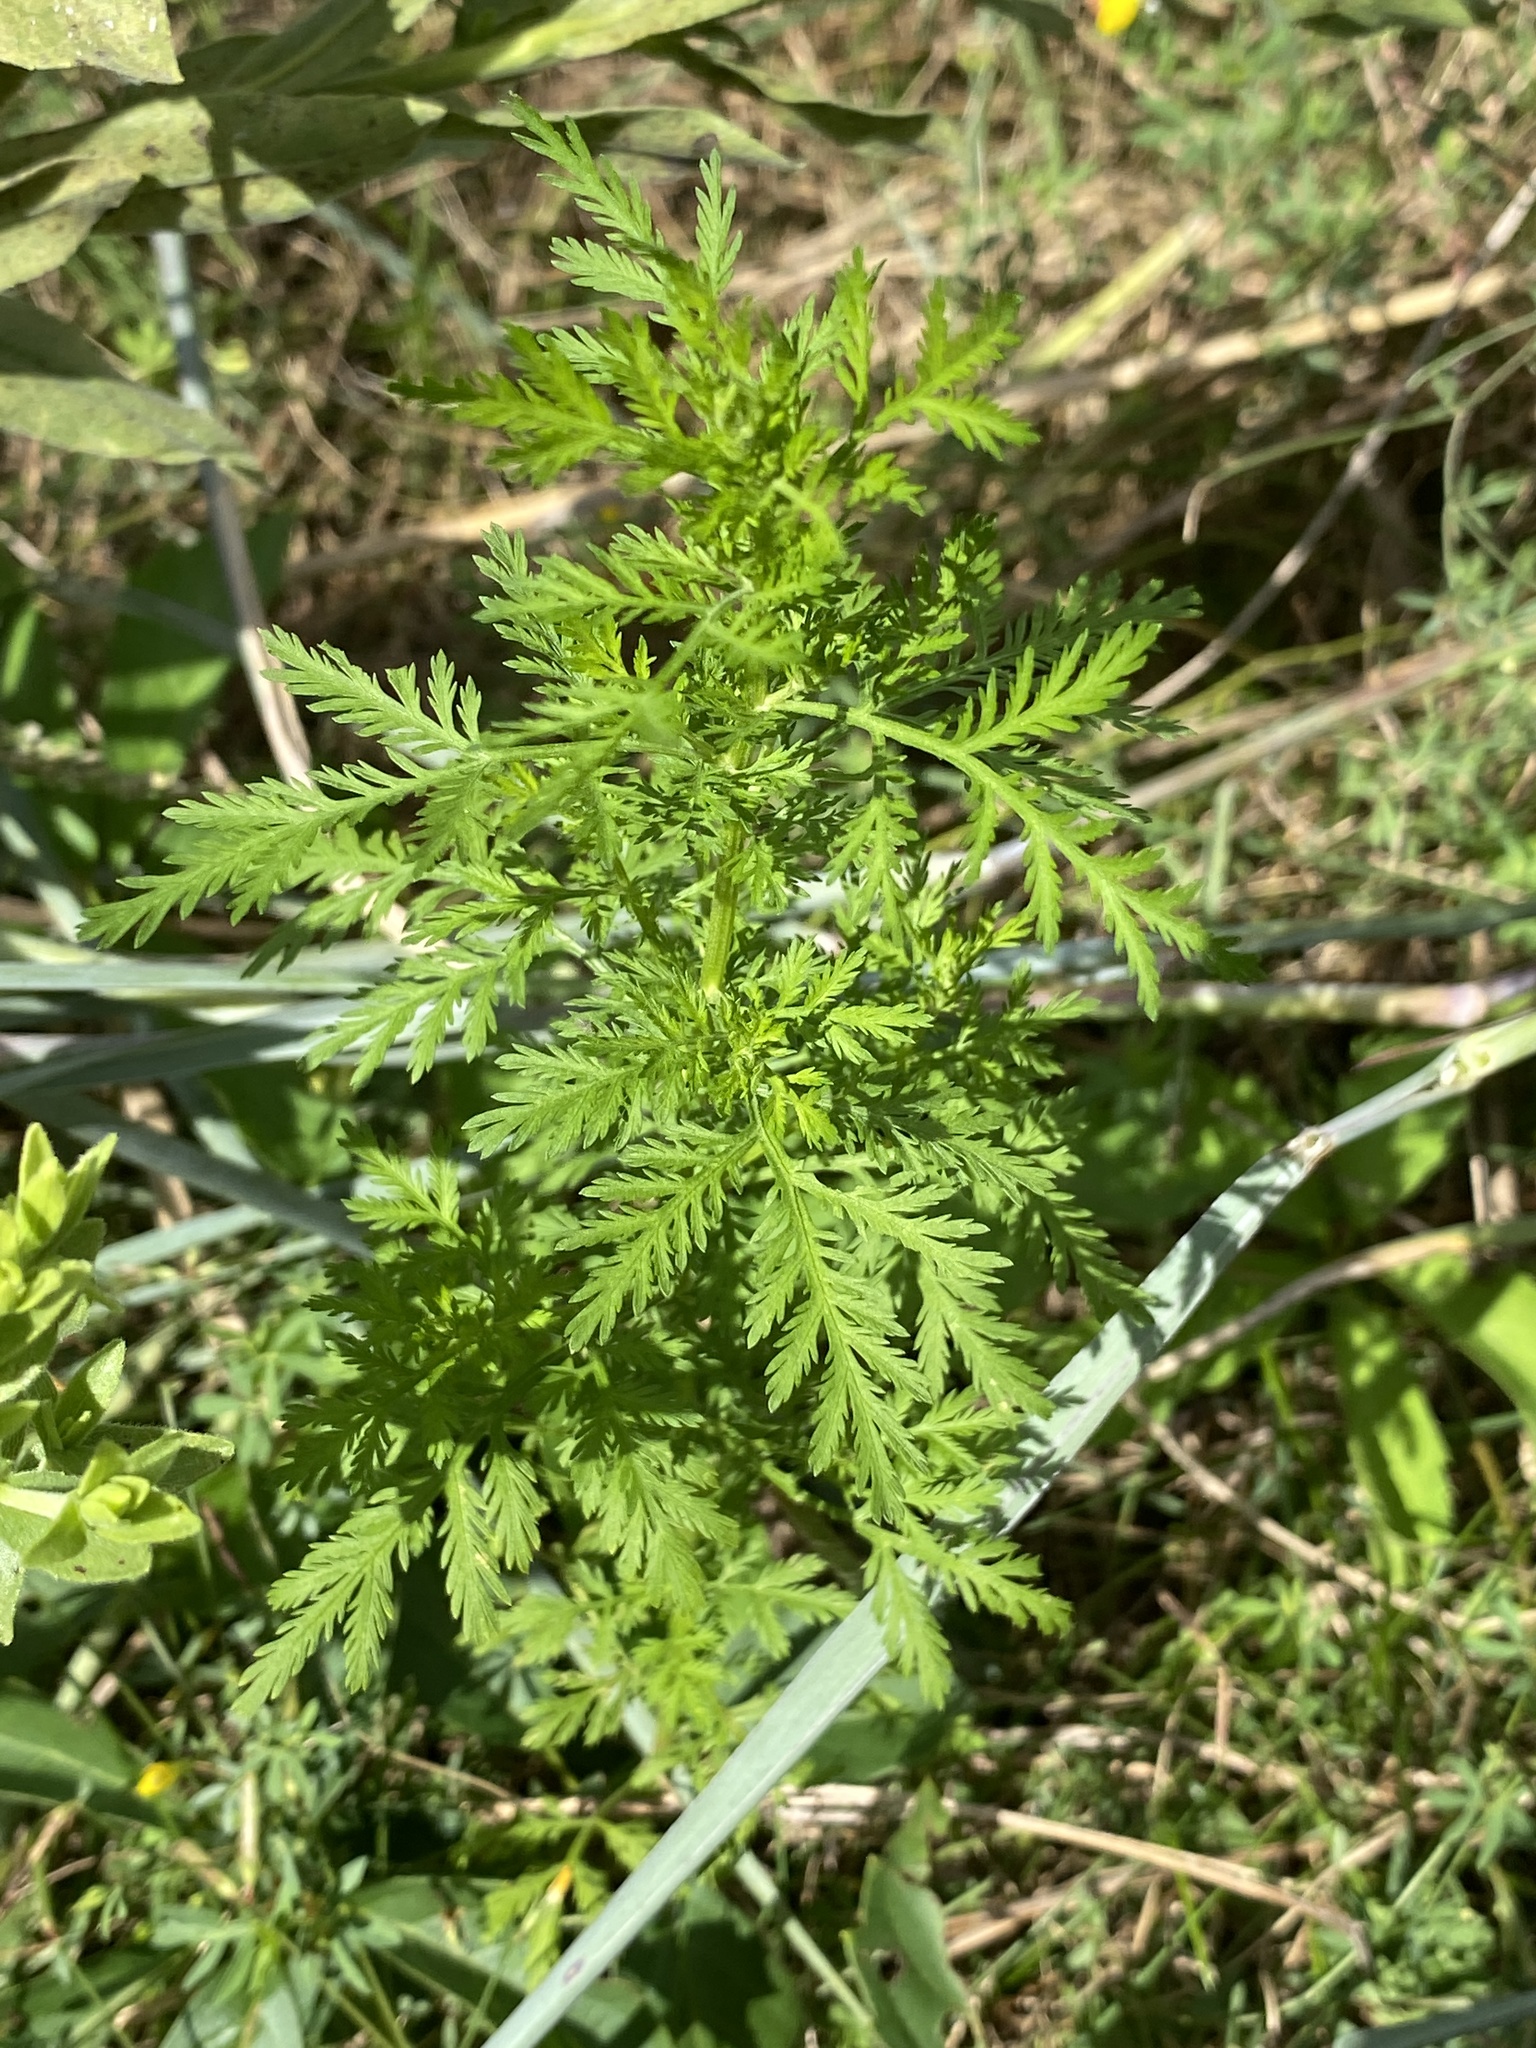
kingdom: Plantae
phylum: Tracheophyta
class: Magnoliopsida
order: Asterales
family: Asteraceae
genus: Artemisia
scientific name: Artemisia annua
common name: Sweet sagewort
